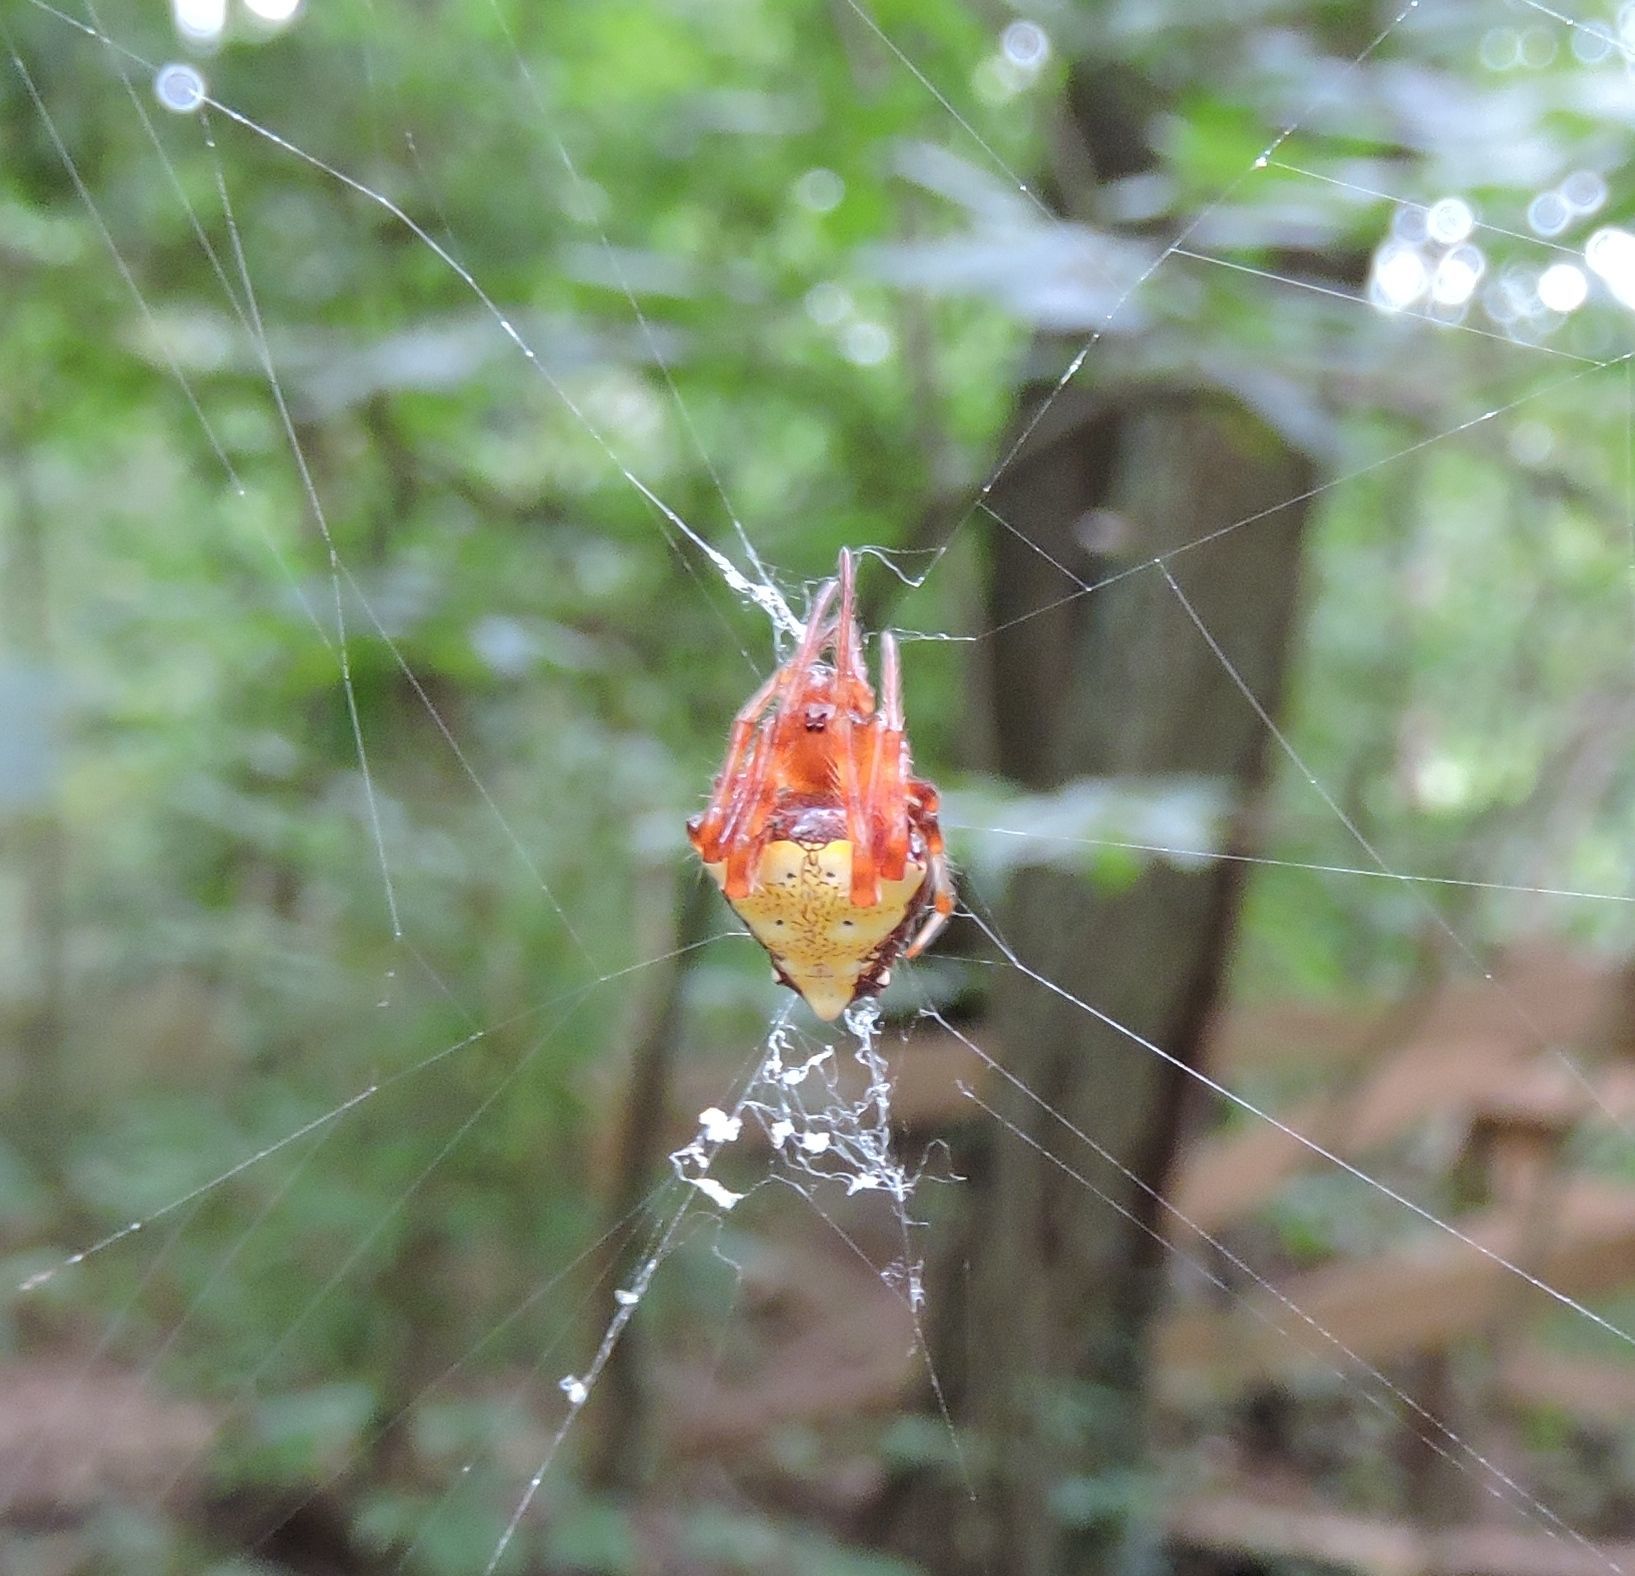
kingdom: Animalia
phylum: Arthropoda
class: Arachnida
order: Araneae
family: Araneidae
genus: Verrucosa
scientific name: Verrucosa arenata
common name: Orb weavers
